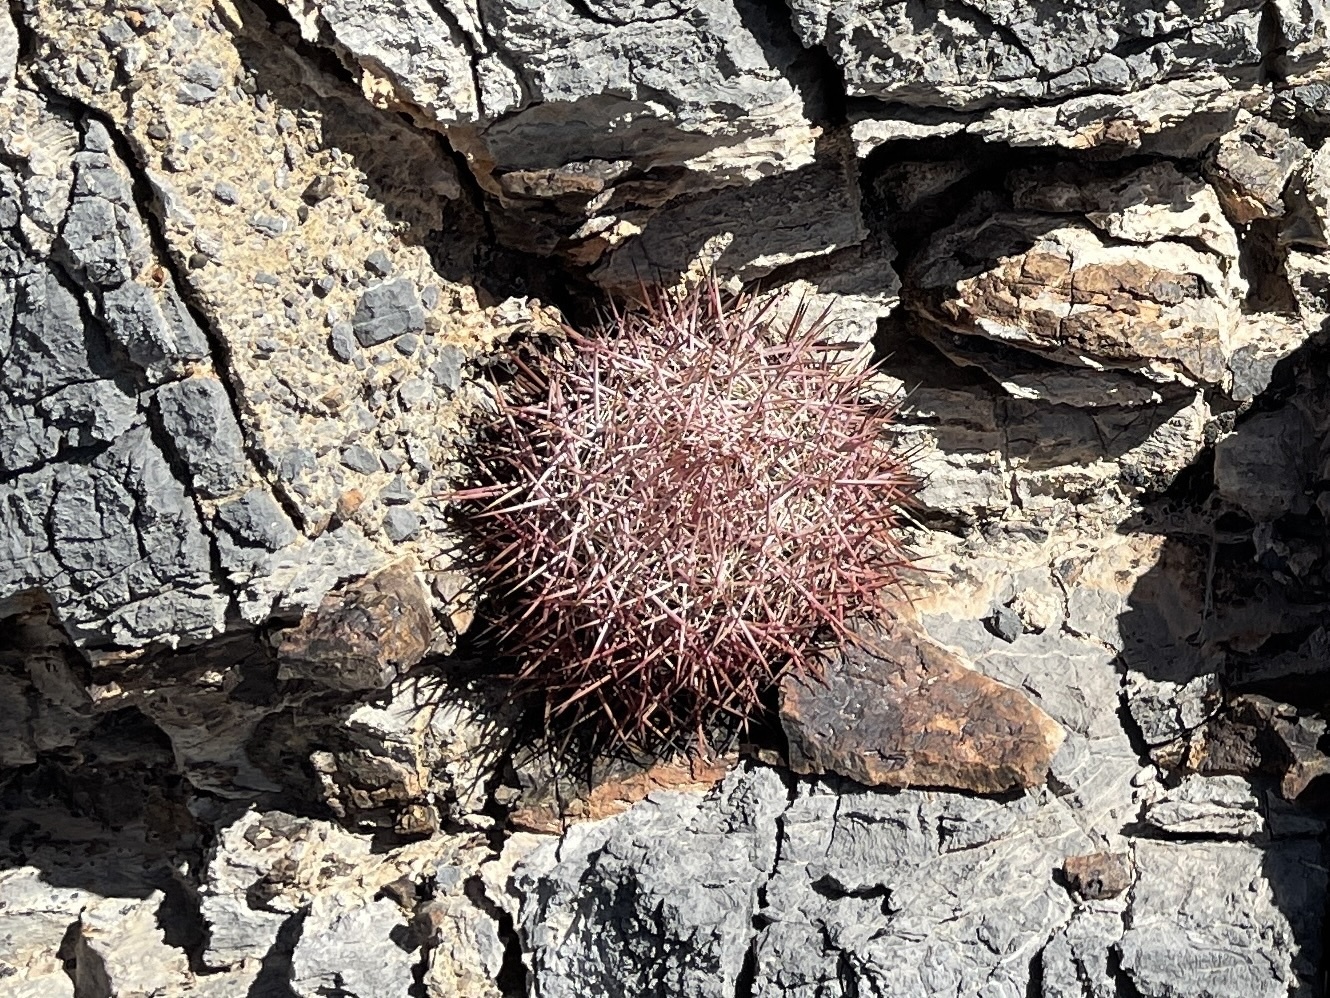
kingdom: Plantae
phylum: Tracheophyta
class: Magnoliopsida
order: Caryophyllales
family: Cactaceae
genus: Sclerocactus
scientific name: Sclerocactus johnsonii
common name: Eight-spine fishhook cactus
